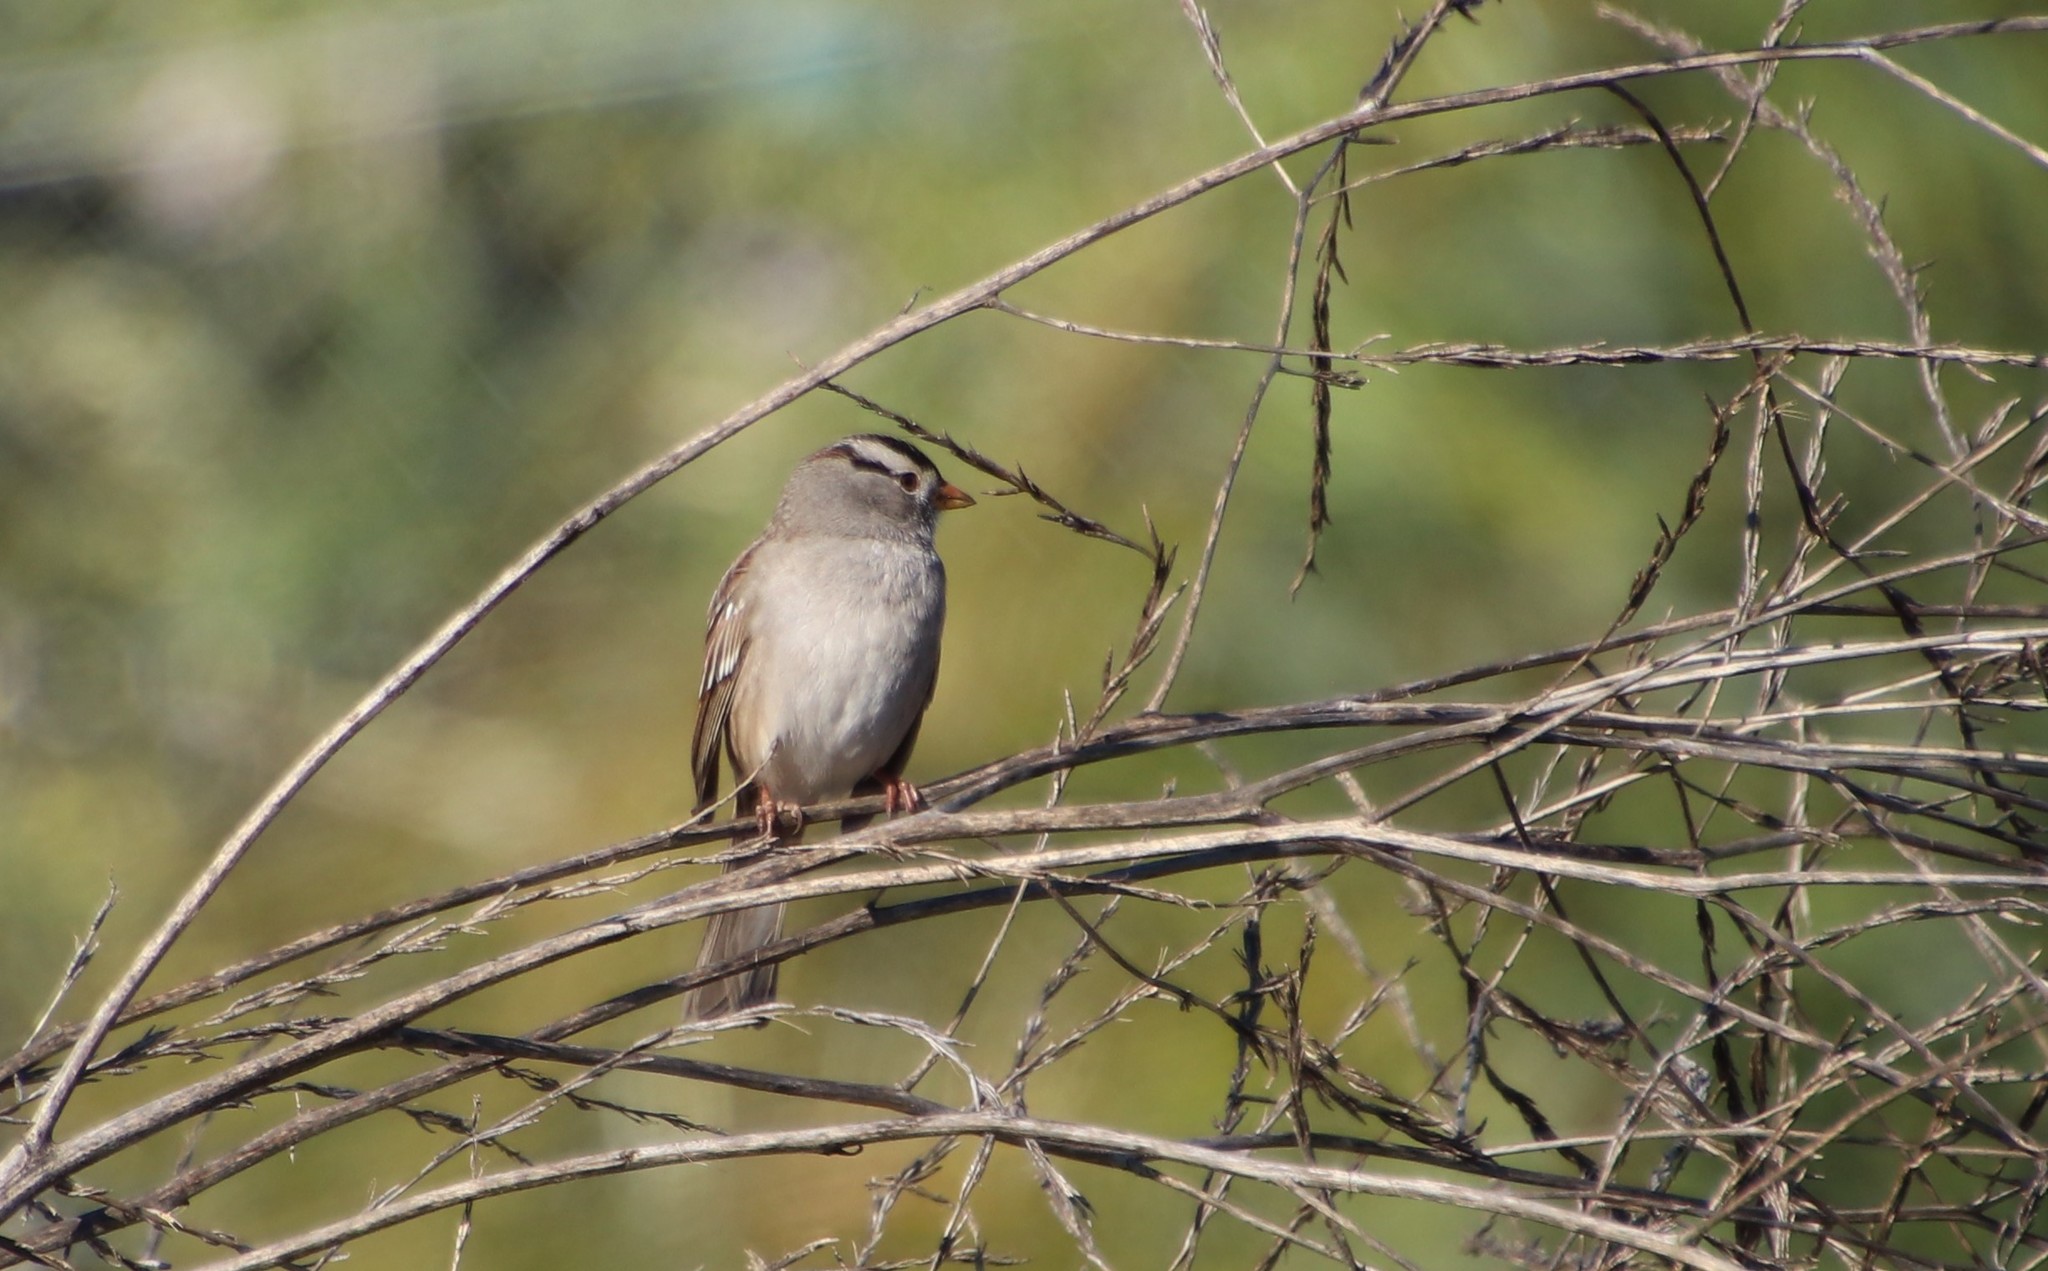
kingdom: Animalia
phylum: Chordata
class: Aves
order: Passeriformes
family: Passerellidae
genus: Zonotrichia
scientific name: Zonotrichia leucophrys
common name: White-crowned sparrow
